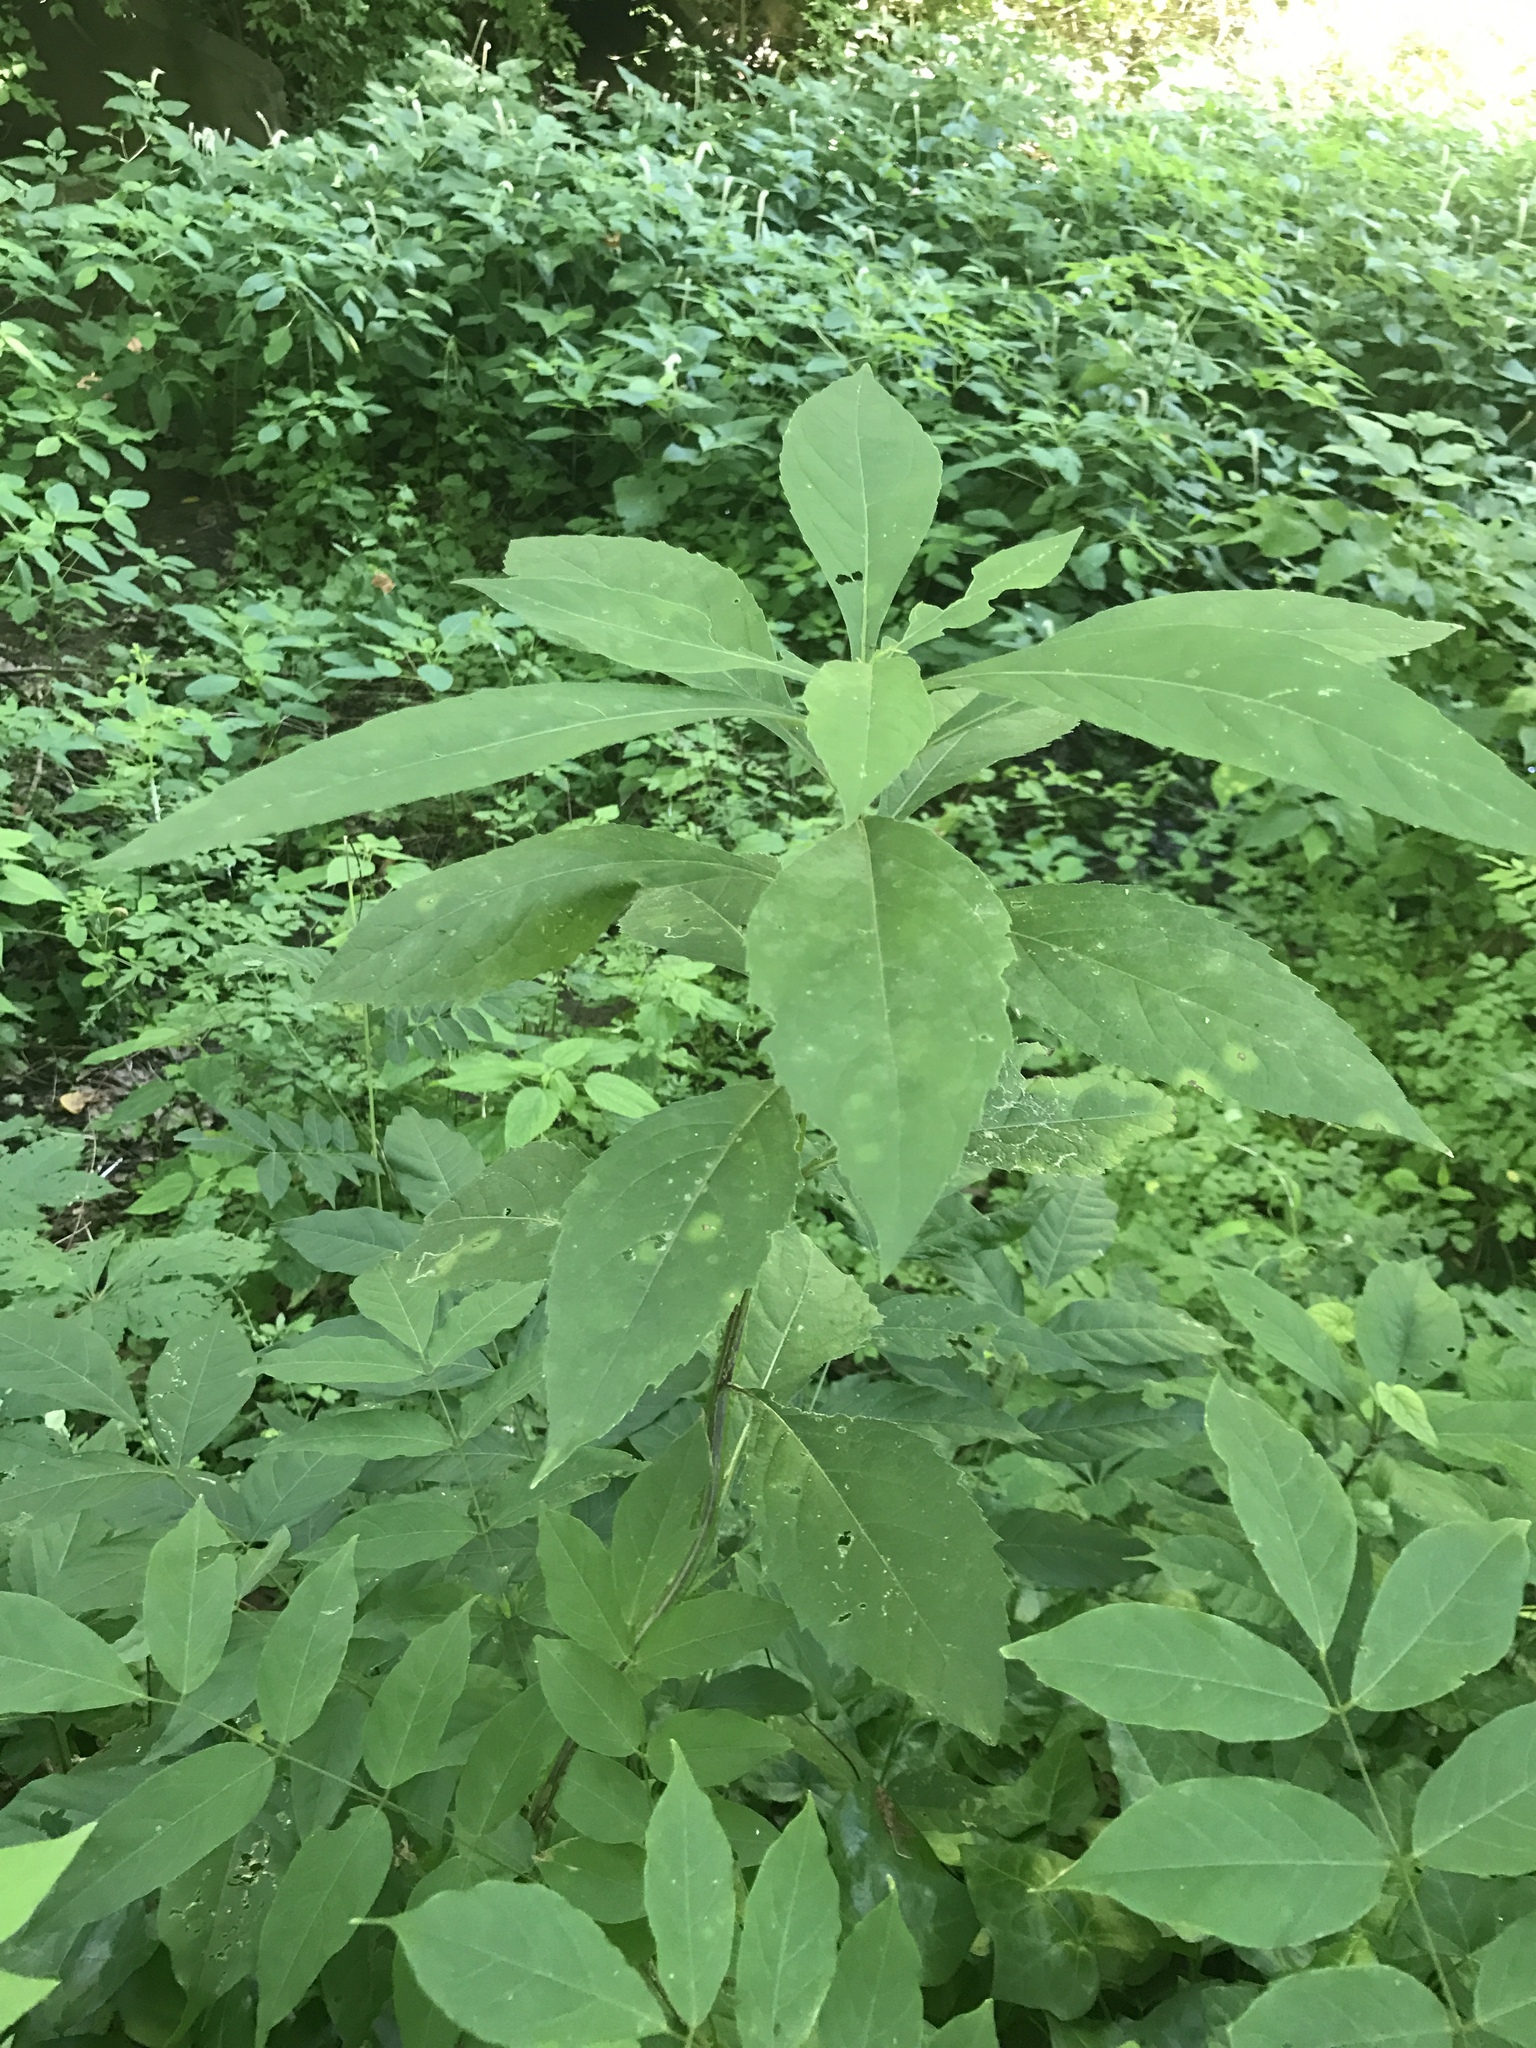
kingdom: Plantae
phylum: Tracheophyta
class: Magnoliopsida
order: Asterales
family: Asteraceae
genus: Verbesina
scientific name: Verbesina alternifolia
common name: Wingstem
